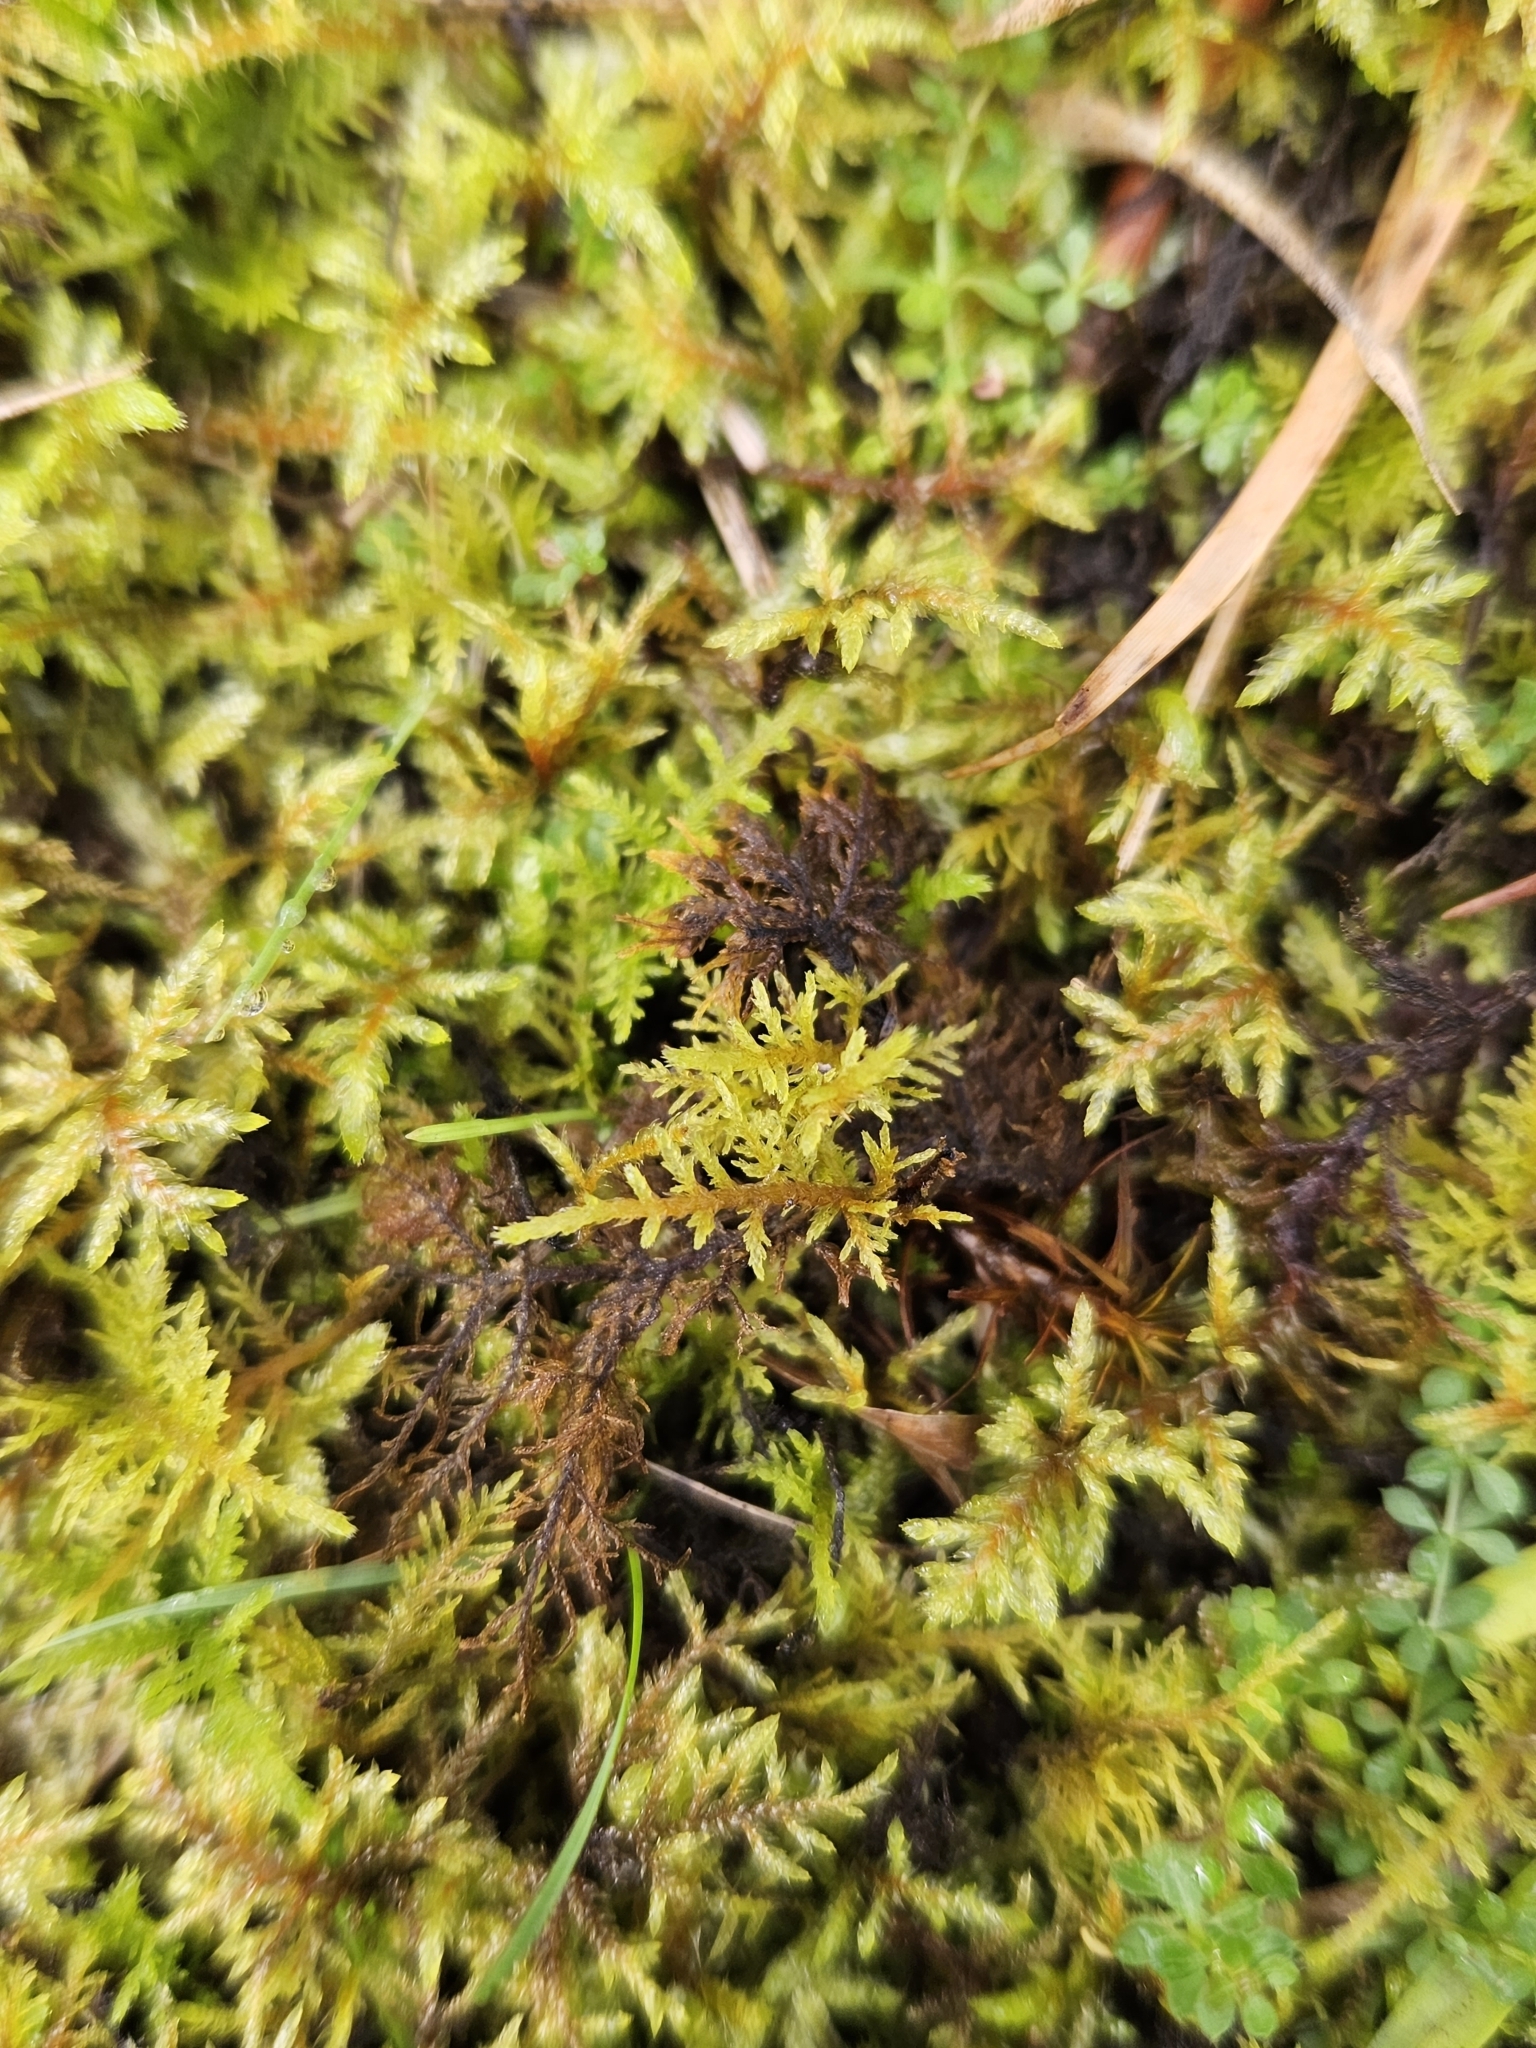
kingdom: Plantae
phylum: Bryophyta
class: Bryopsida
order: Hypnales
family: Thuidiaceae
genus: Thuidium
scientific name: Thuidium tamariscinum
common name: Common tamarisk-moss
